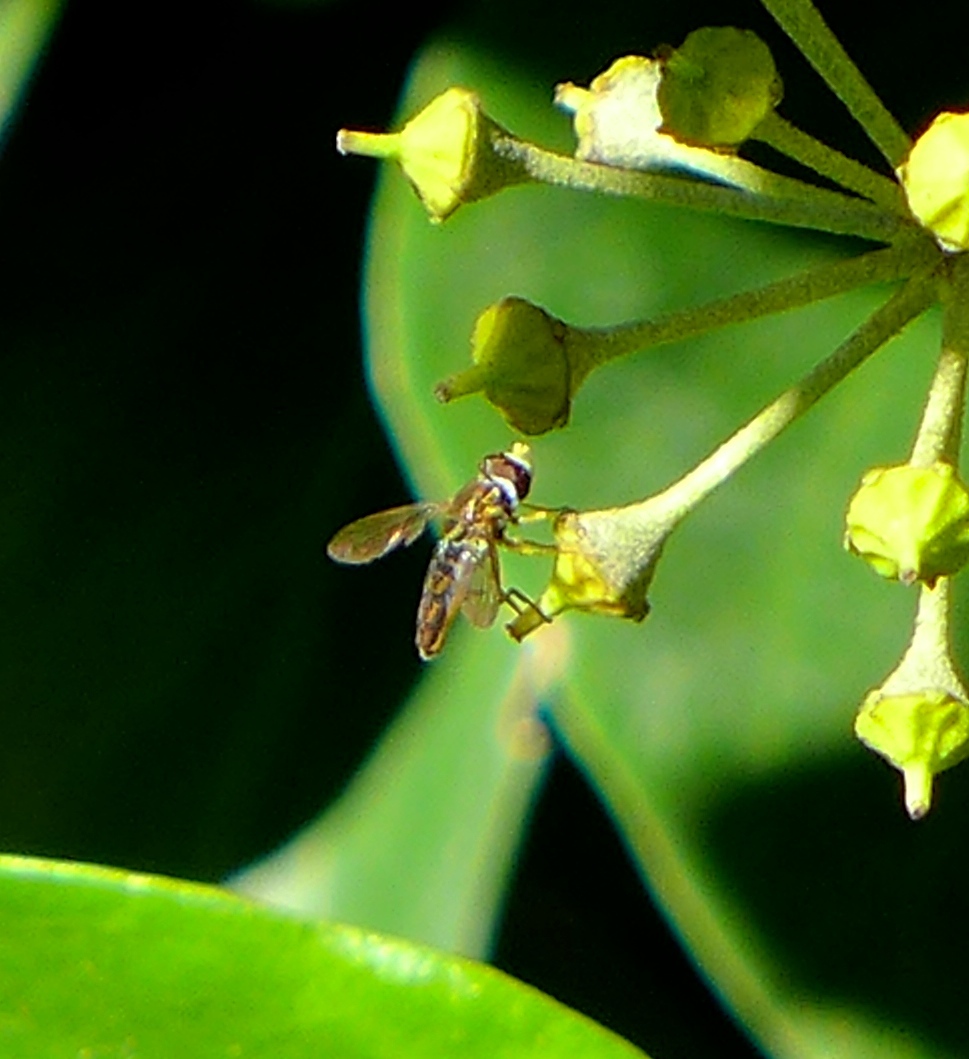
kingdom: Animalia
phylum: Arthropoda
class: Insecta
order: Diptera
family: Syrphidae
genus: Toxomerus
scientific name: Toxomerus marginatus
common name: Syrphid fly
